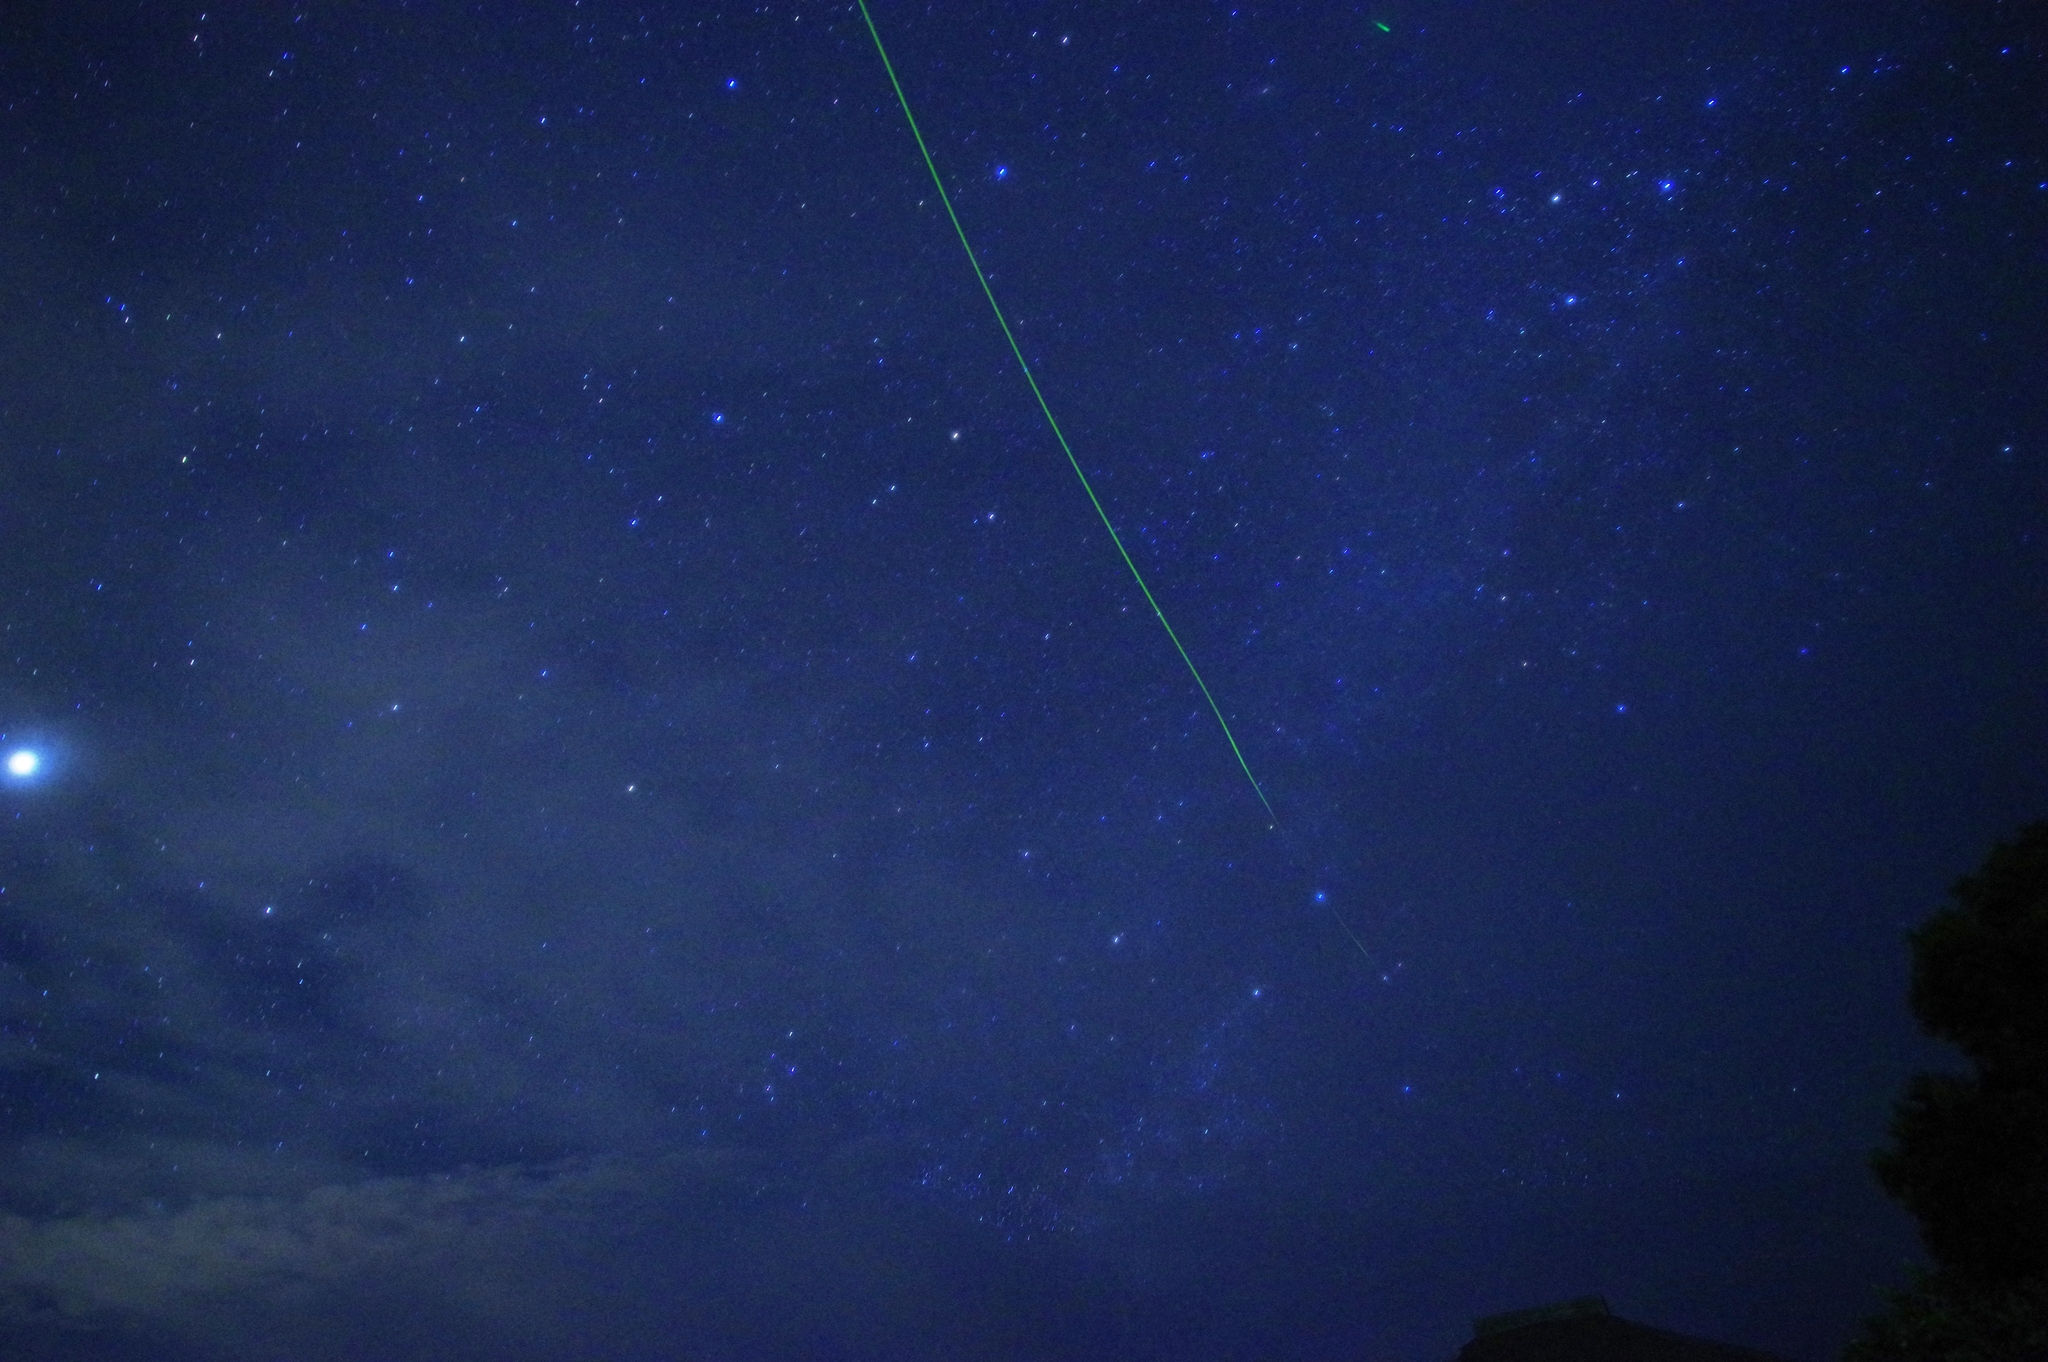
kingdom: Animalia
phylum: Arthropoda
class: Insecta
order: Coleoptera
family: Lampyridae
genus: Curtos
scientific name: Curtos okinawanus
